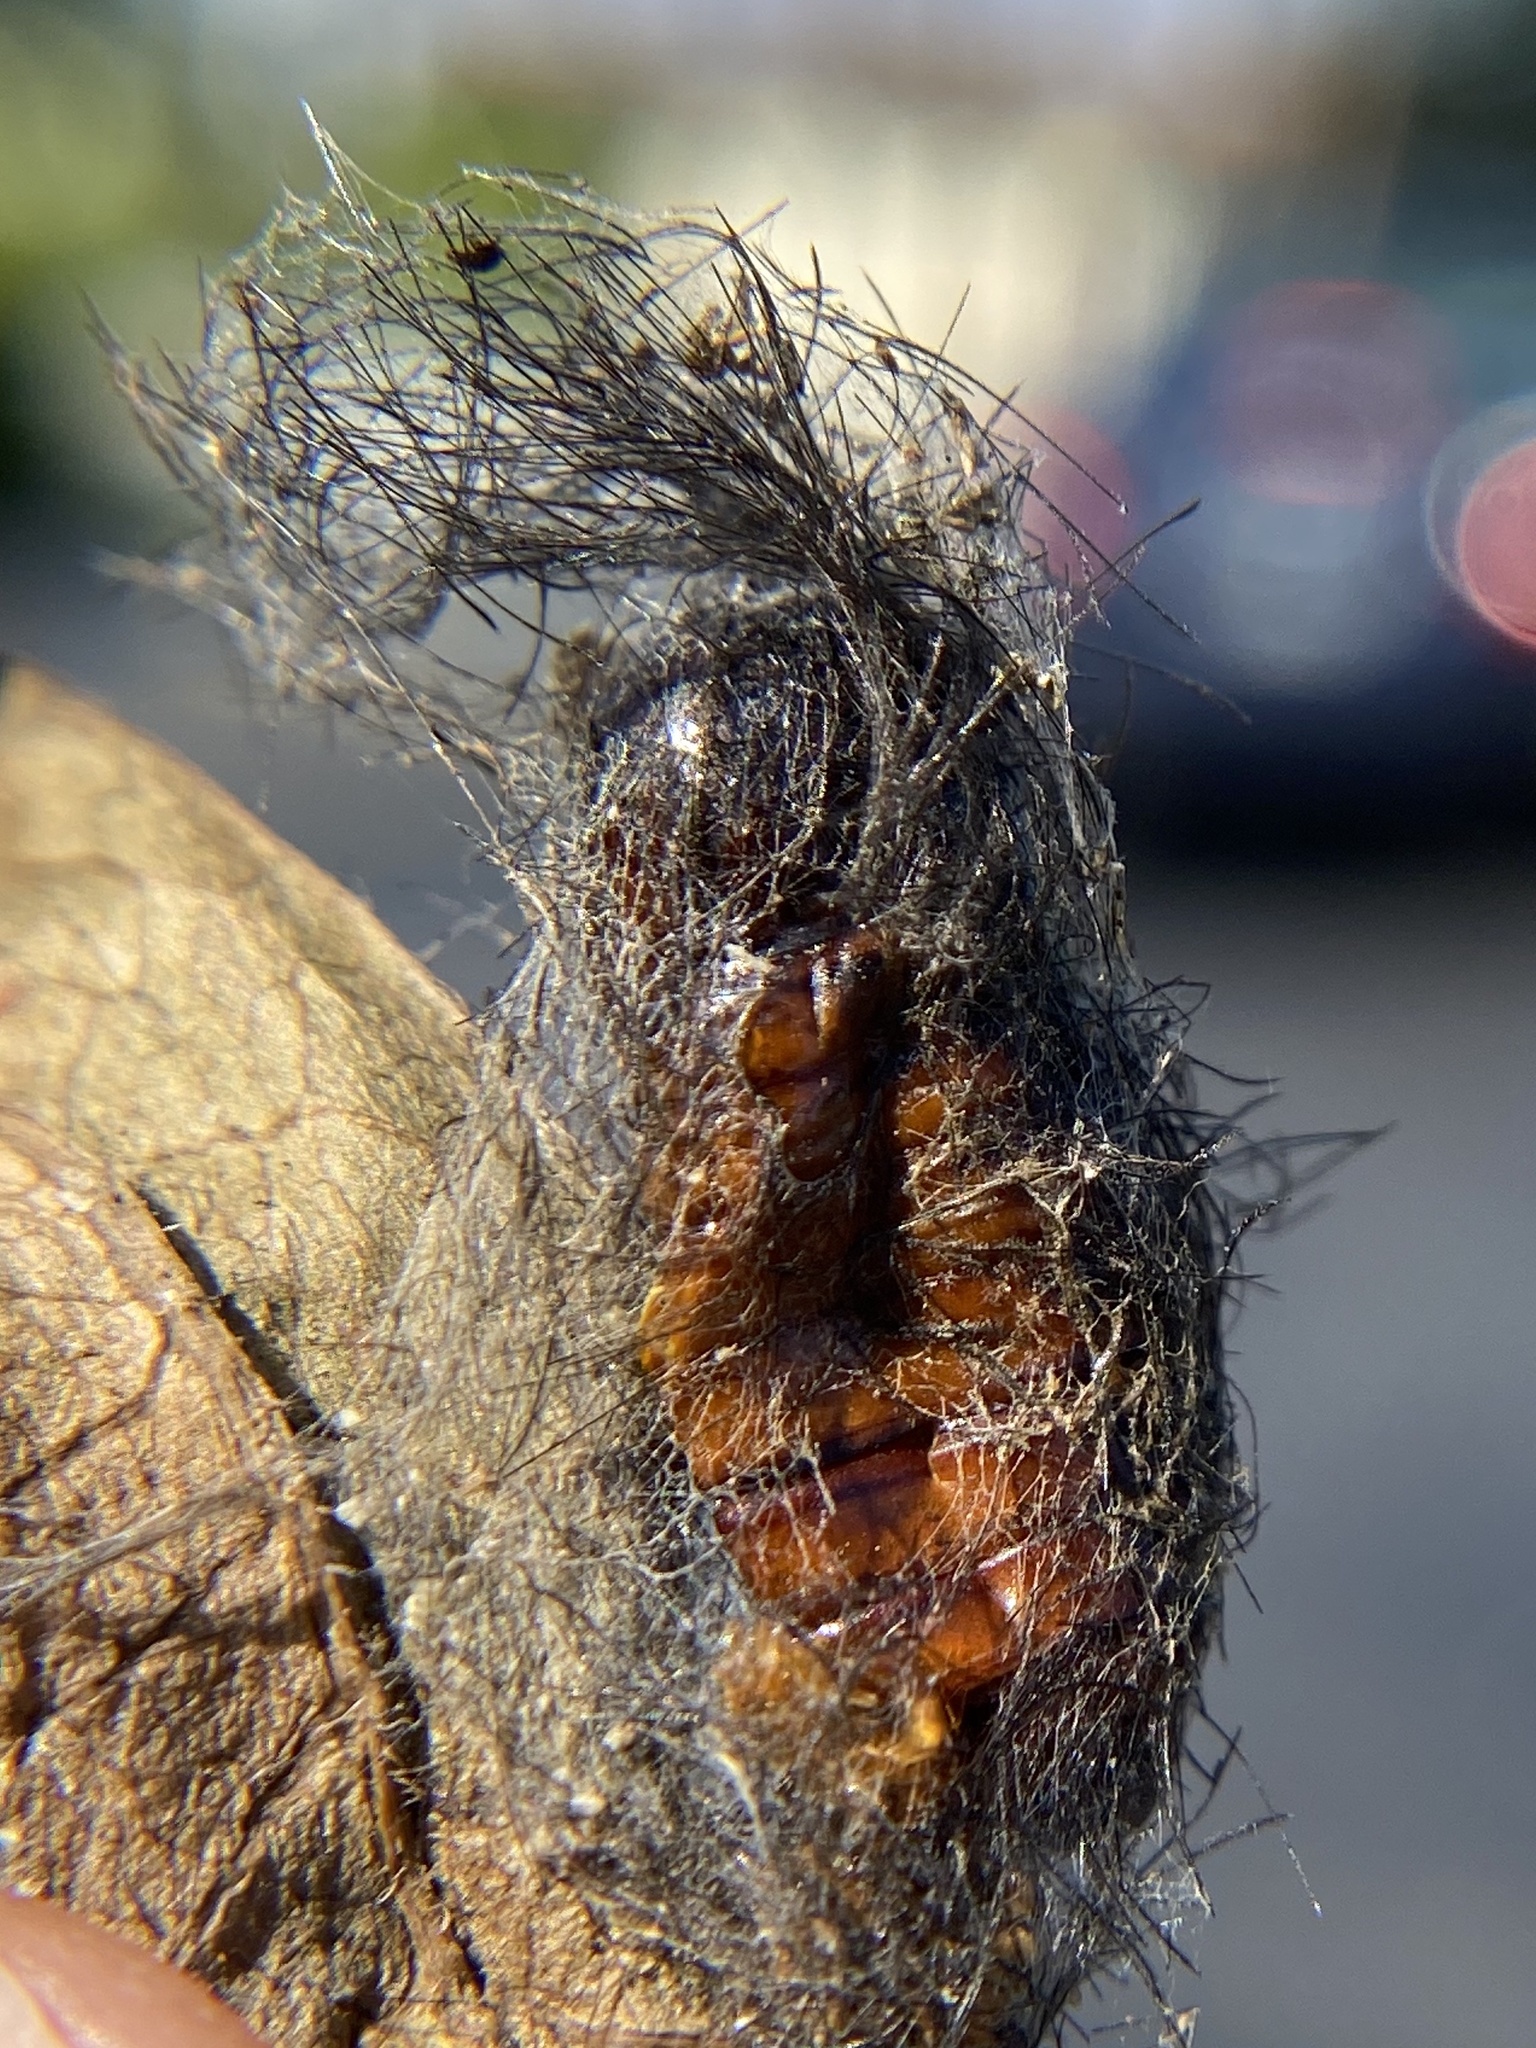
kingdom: Animalia
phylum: Arthropoda
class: Insecta
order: Lepidoptera
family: Erebidae
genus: Syntomeida
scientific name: Syntomeida epilais
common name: Polka-dot wasp moth
